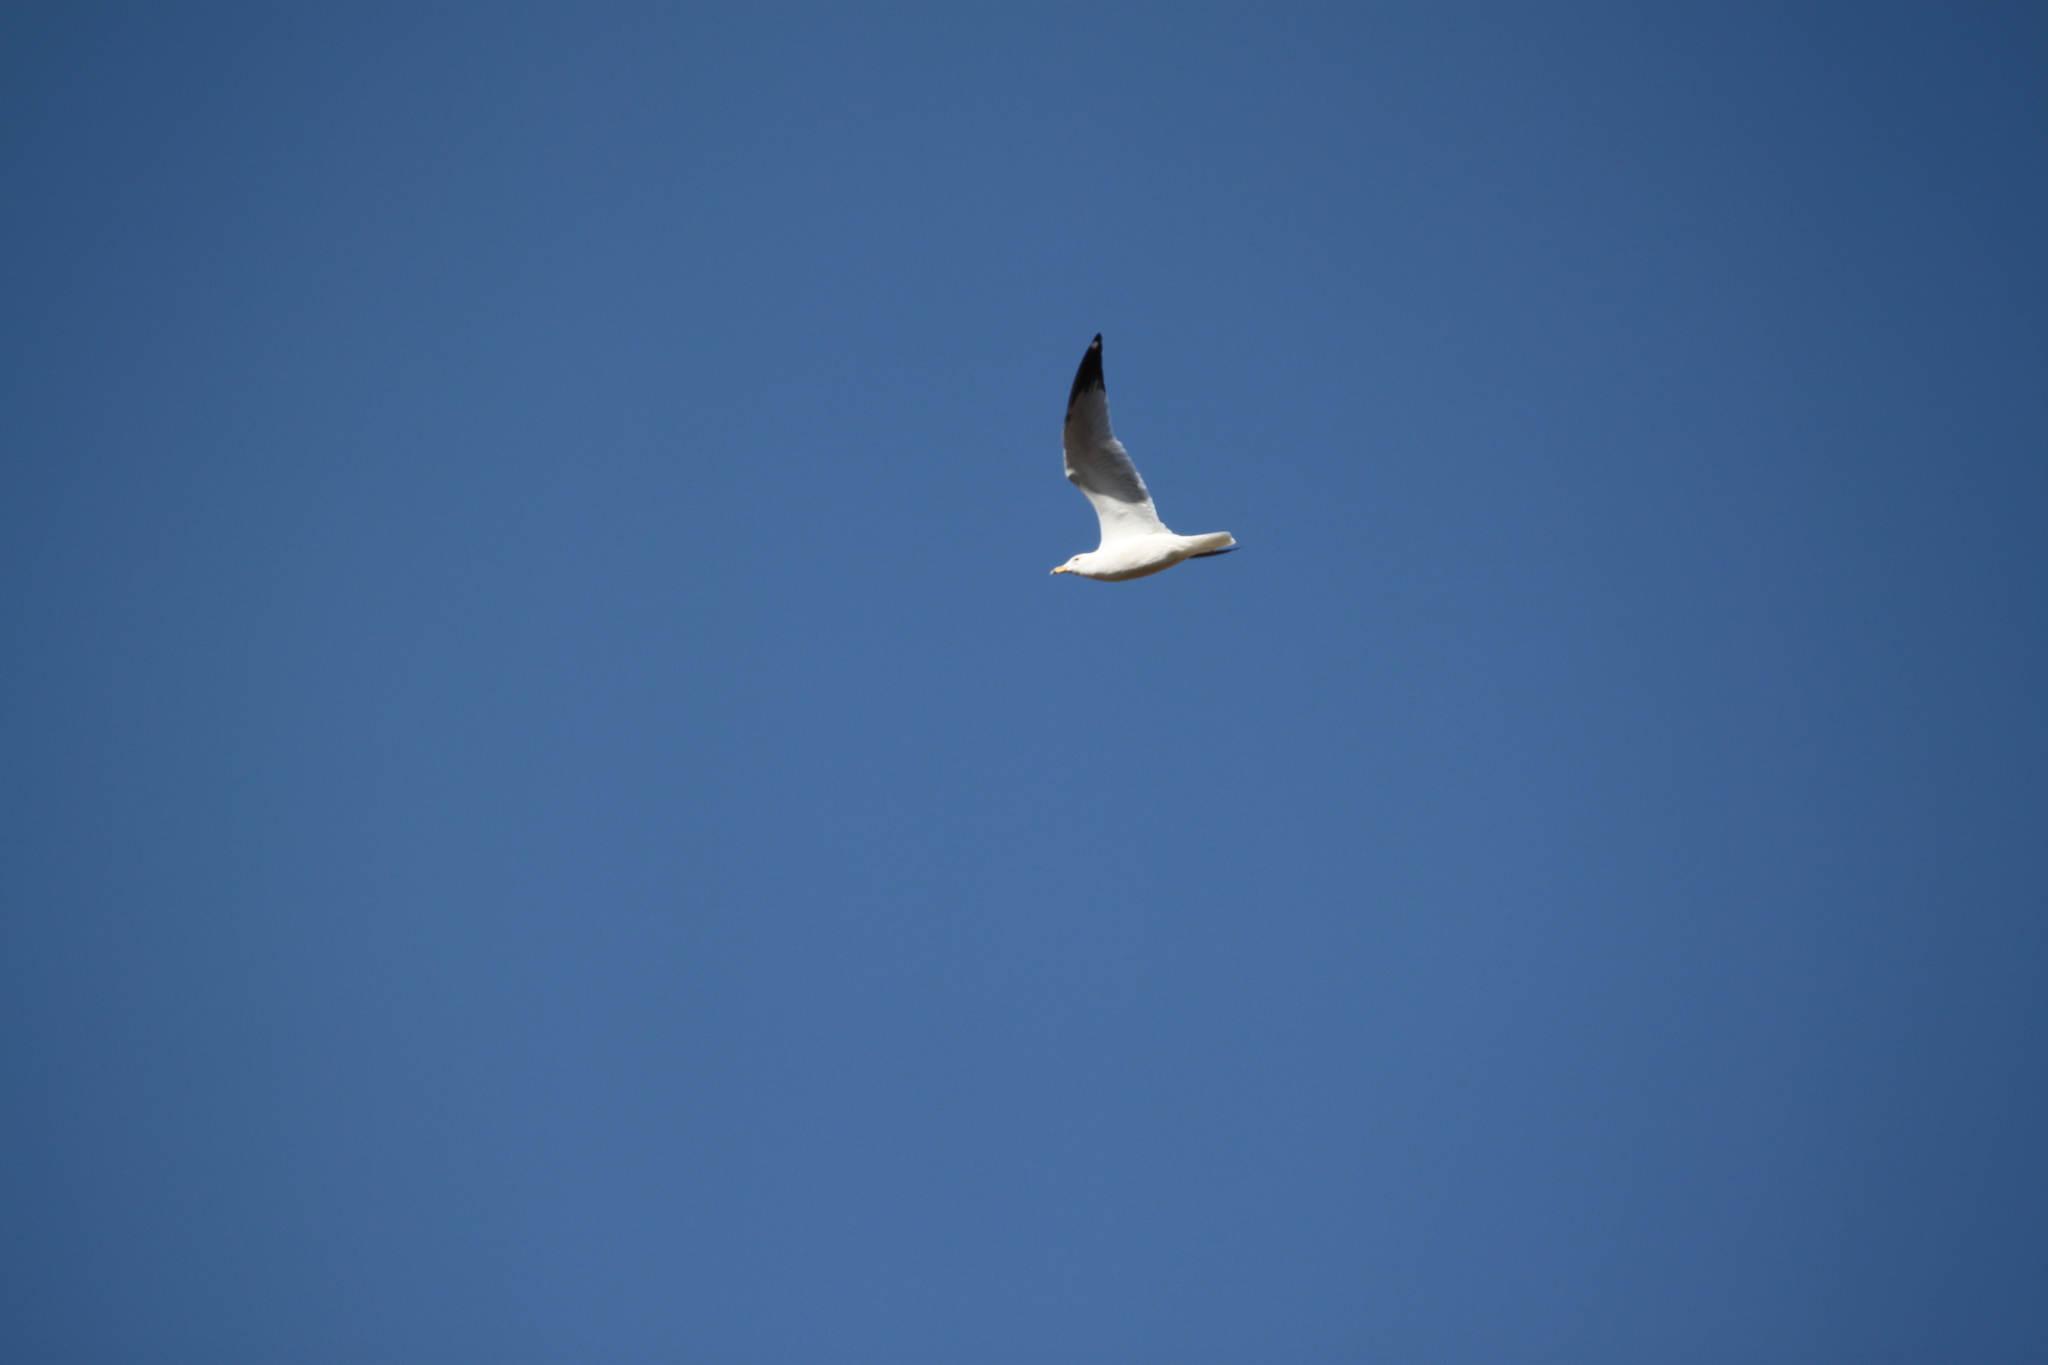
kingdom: Animalia
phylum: Chordata
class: Aves
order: Charadriiformes
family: Laridae
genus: Larus
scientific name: Larus delawarensis
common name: Ring-billed gull
